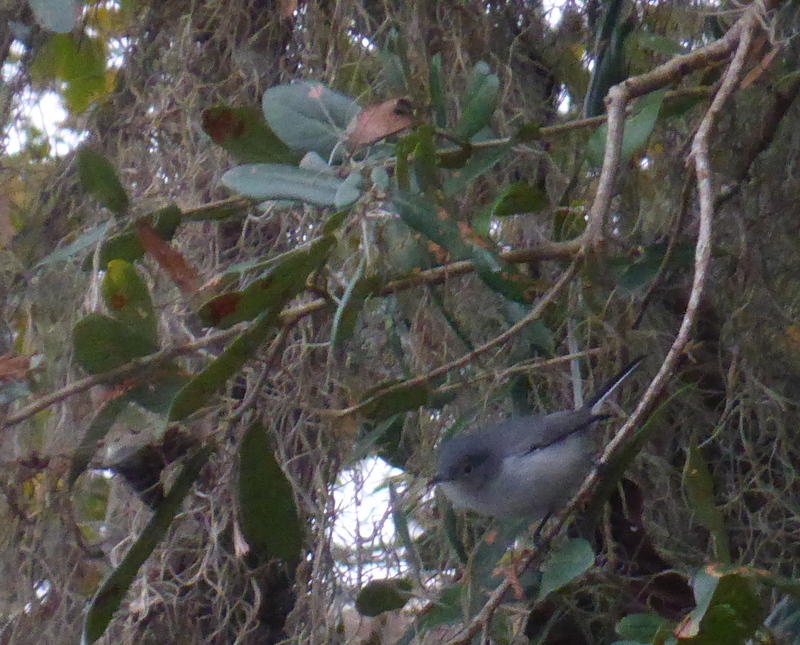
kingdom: Animalia
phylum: Chordata
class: Aves
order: Passeriformes
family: Polioptilidae
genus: Polioptila
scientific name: Polioptila caerulea
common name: Blue-gray gnatcatcher
